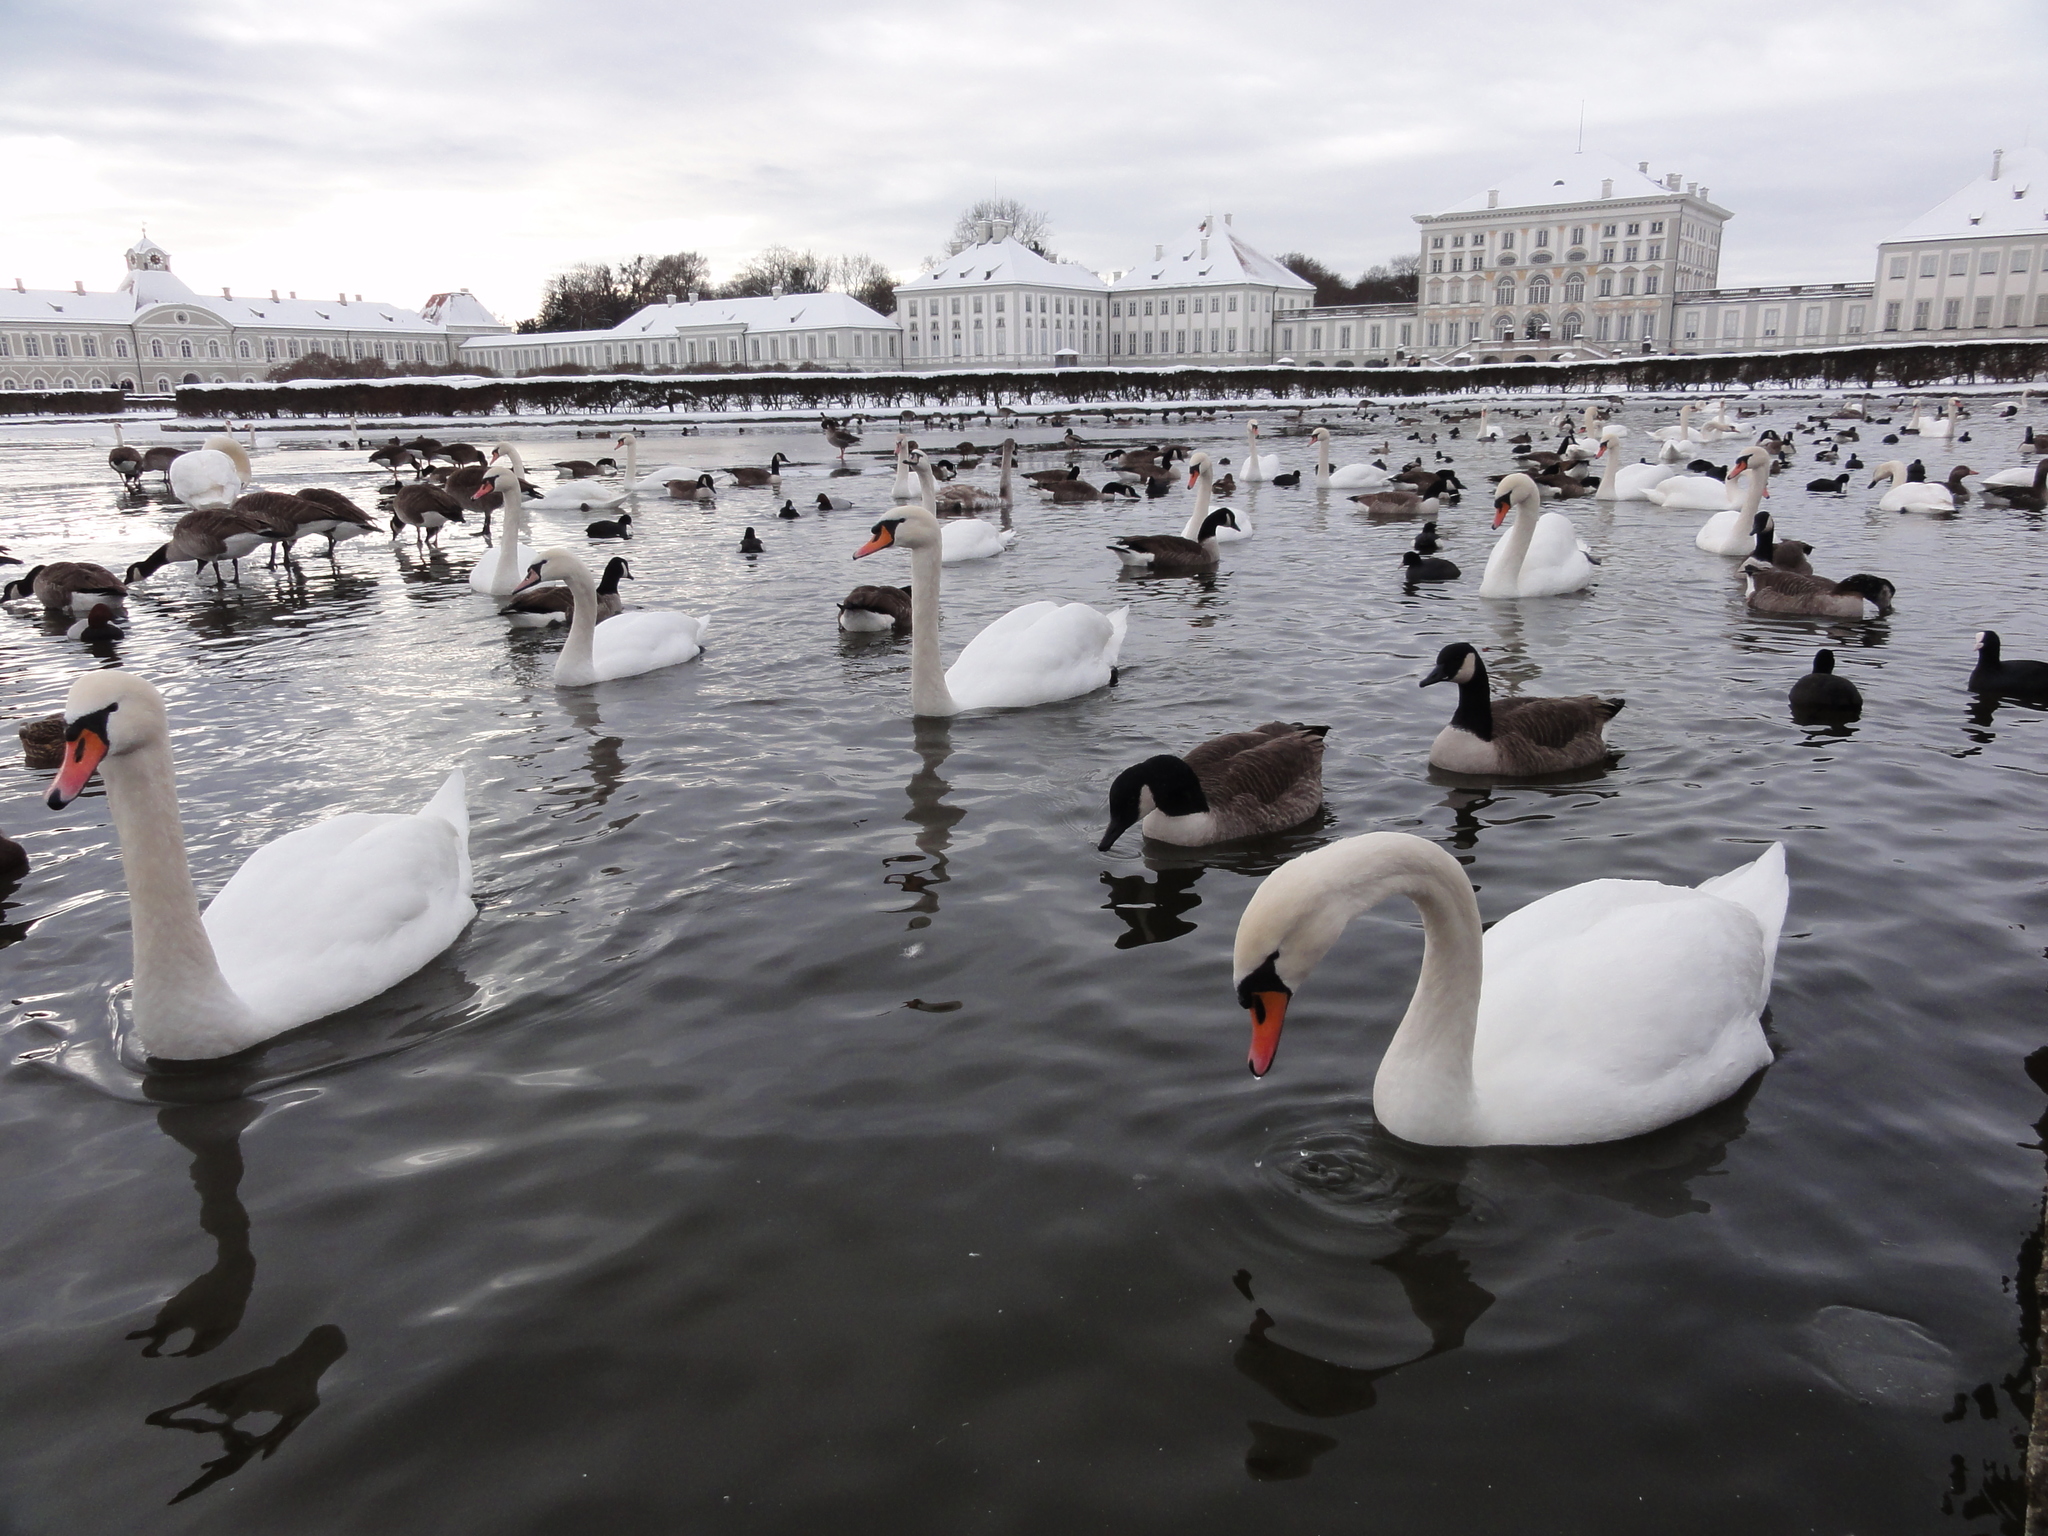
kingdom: Animalia
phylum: Chordata
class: Aves
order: Anseriformes
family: Anatidae
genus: Cygnus
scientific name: Cygnus olor
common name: Mute swan
